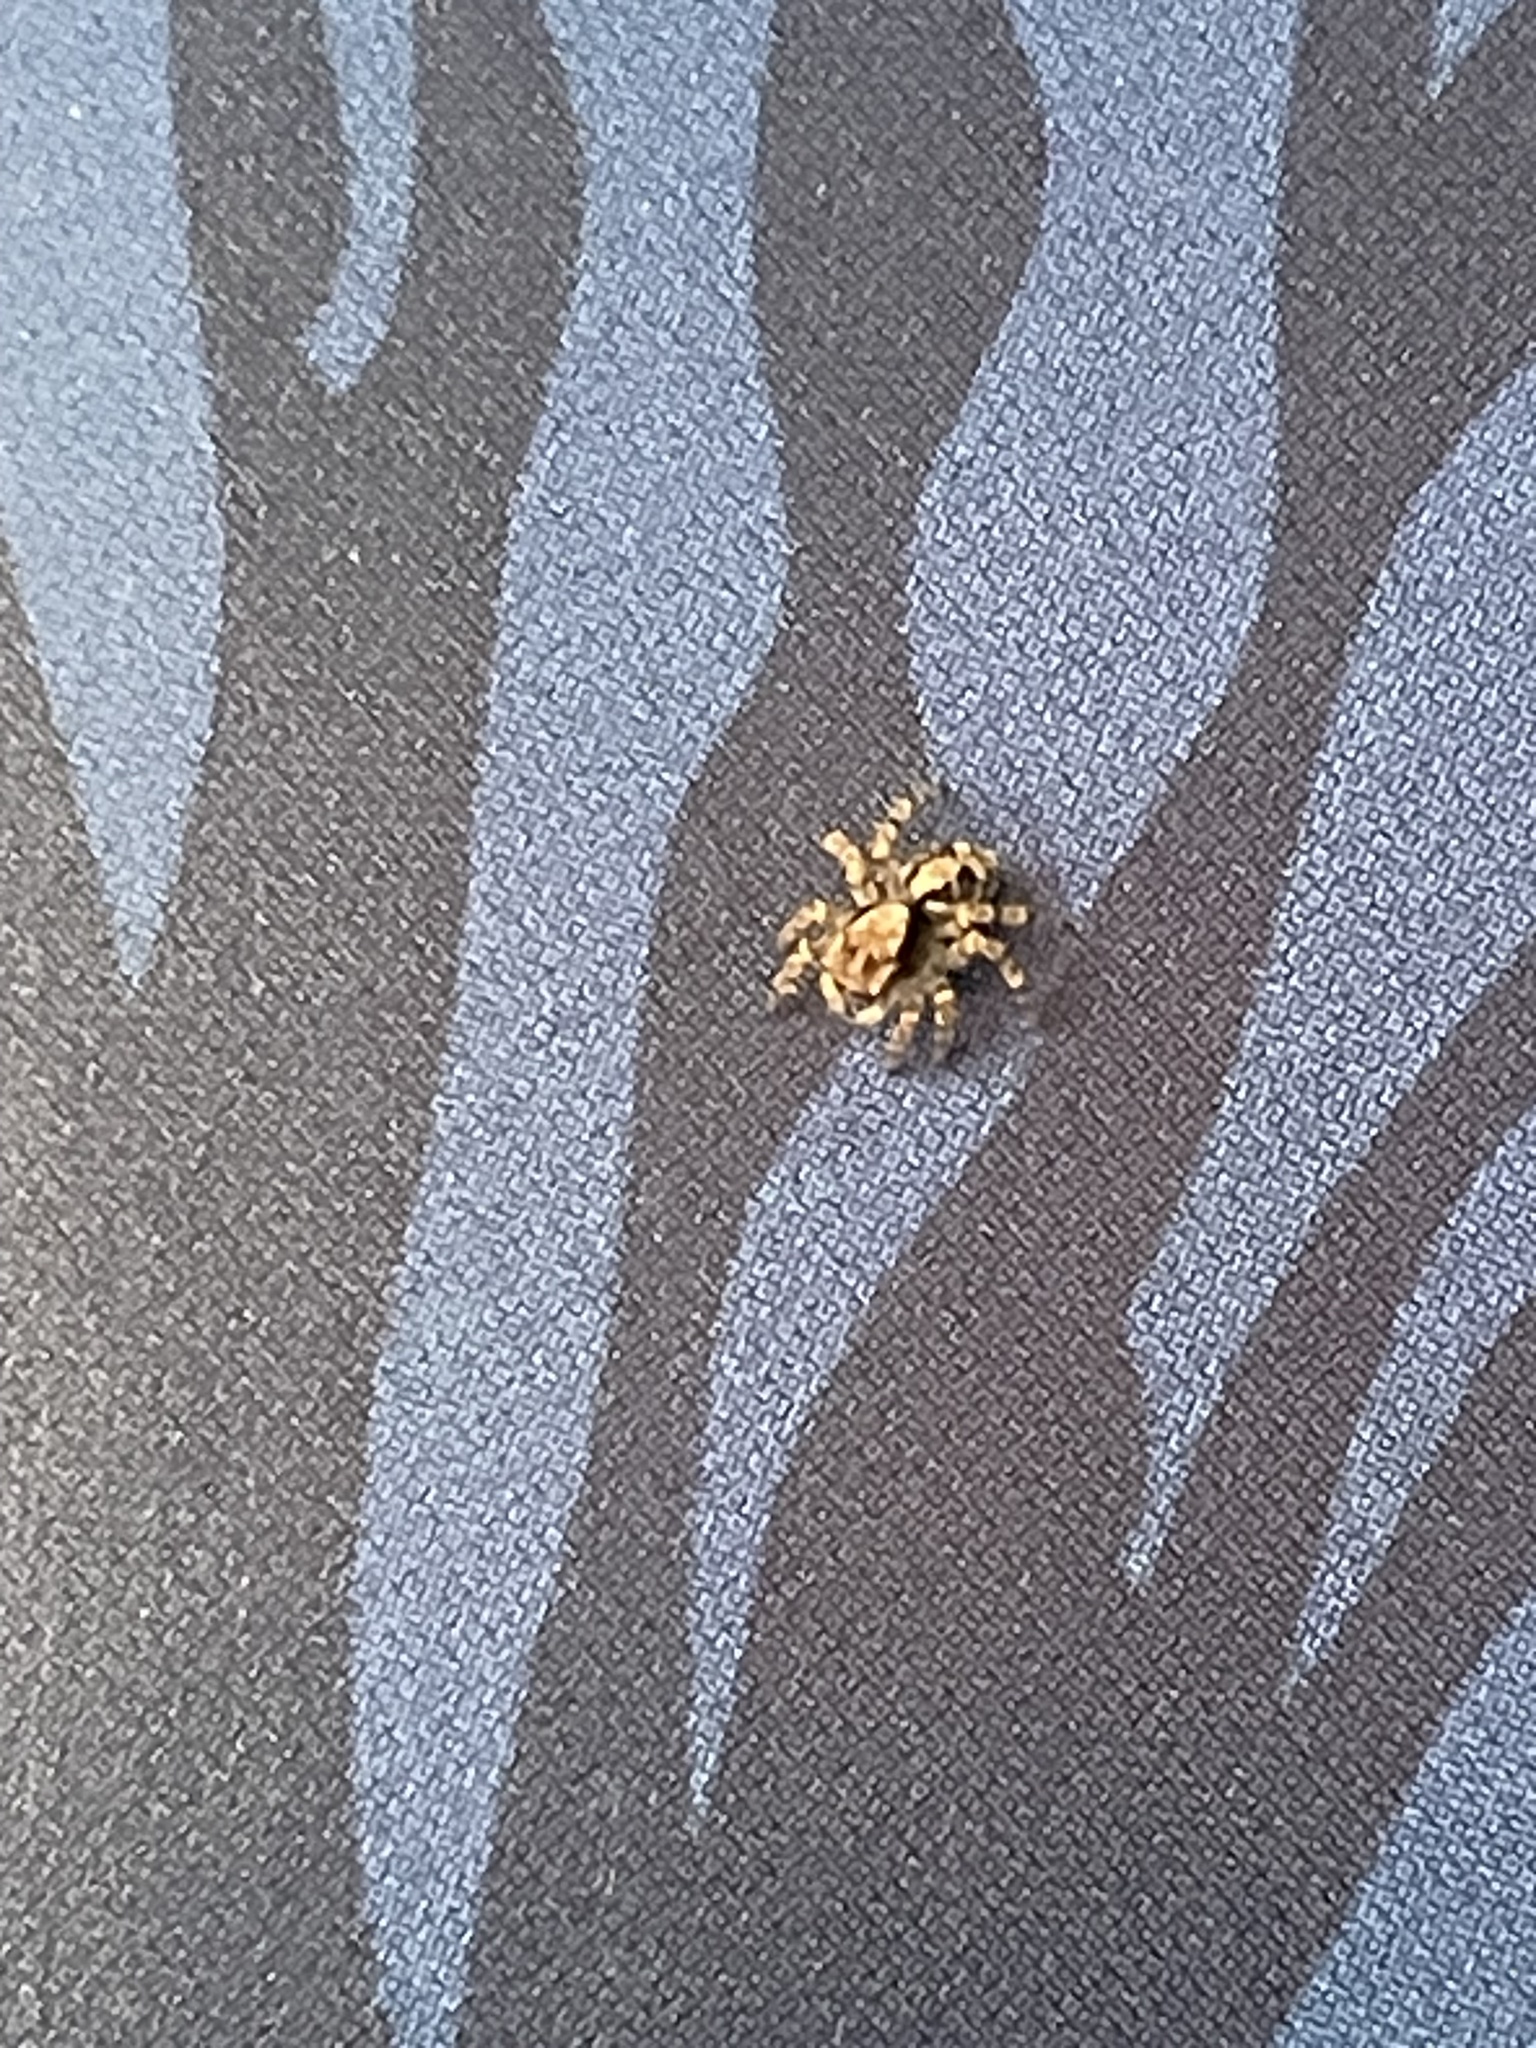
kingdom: Animalia
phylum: Arthropoda
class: Arachnida
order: Araneae
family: Salticidae
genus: Naphrys
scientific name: Naphrys pulex
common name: Flea jumping spider
